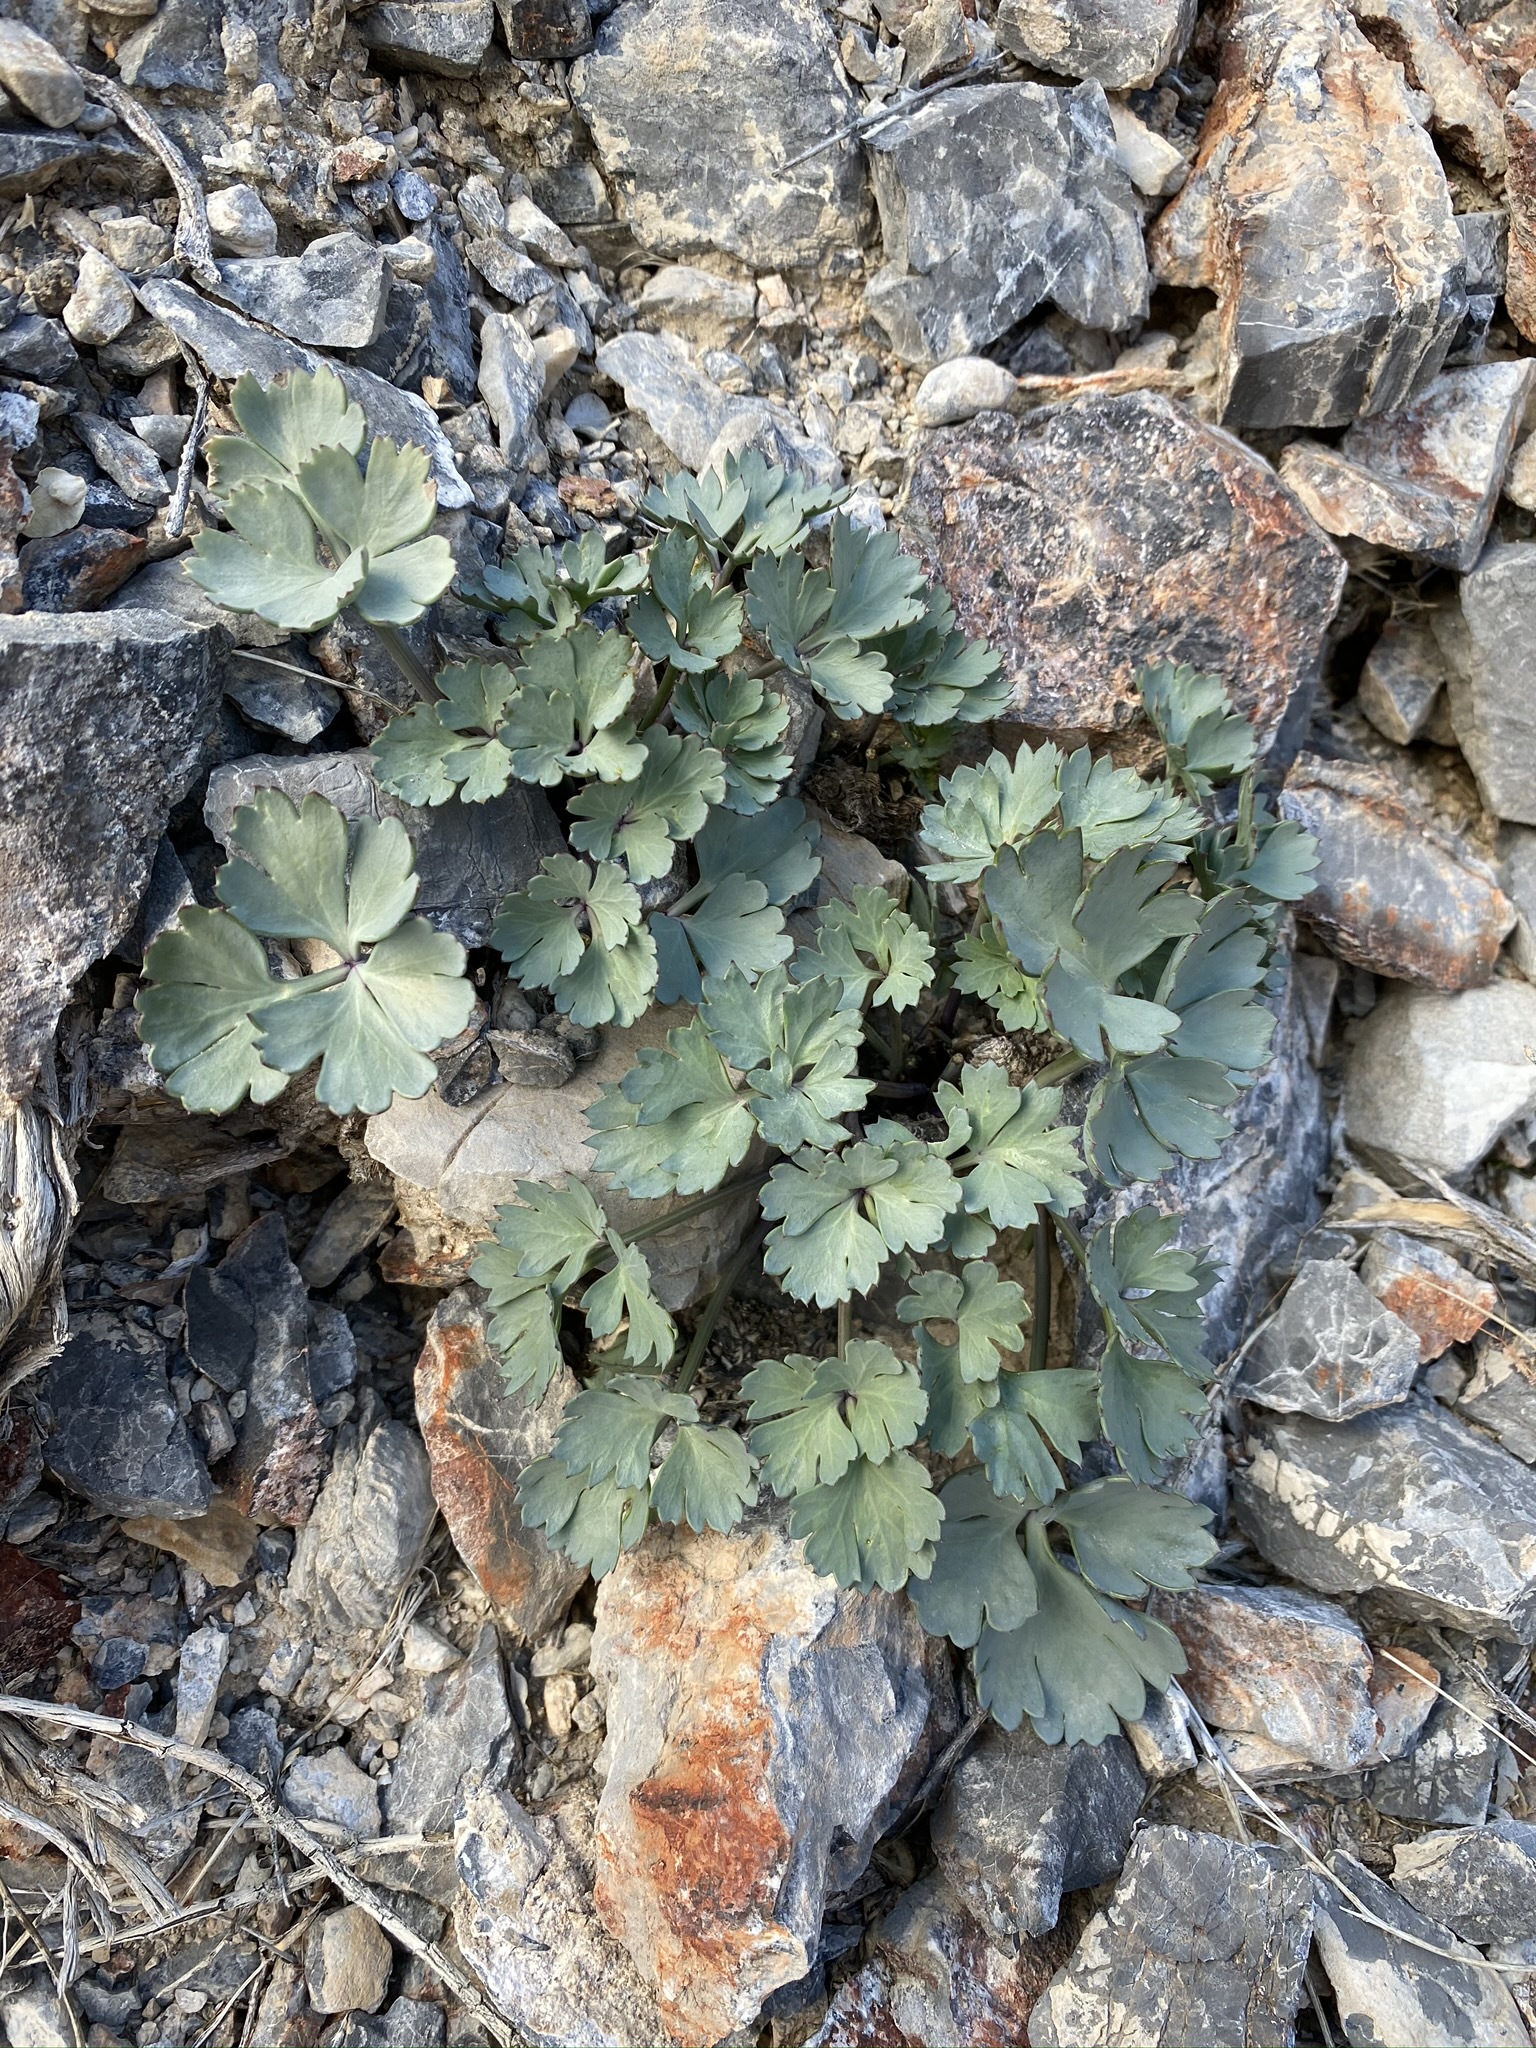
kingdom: Plantae
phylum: Tracheophyta
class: Magnoliopsida
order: Apiales
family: Apiaceae
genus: Cymopterus
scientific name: Cymopterus gilmanii
